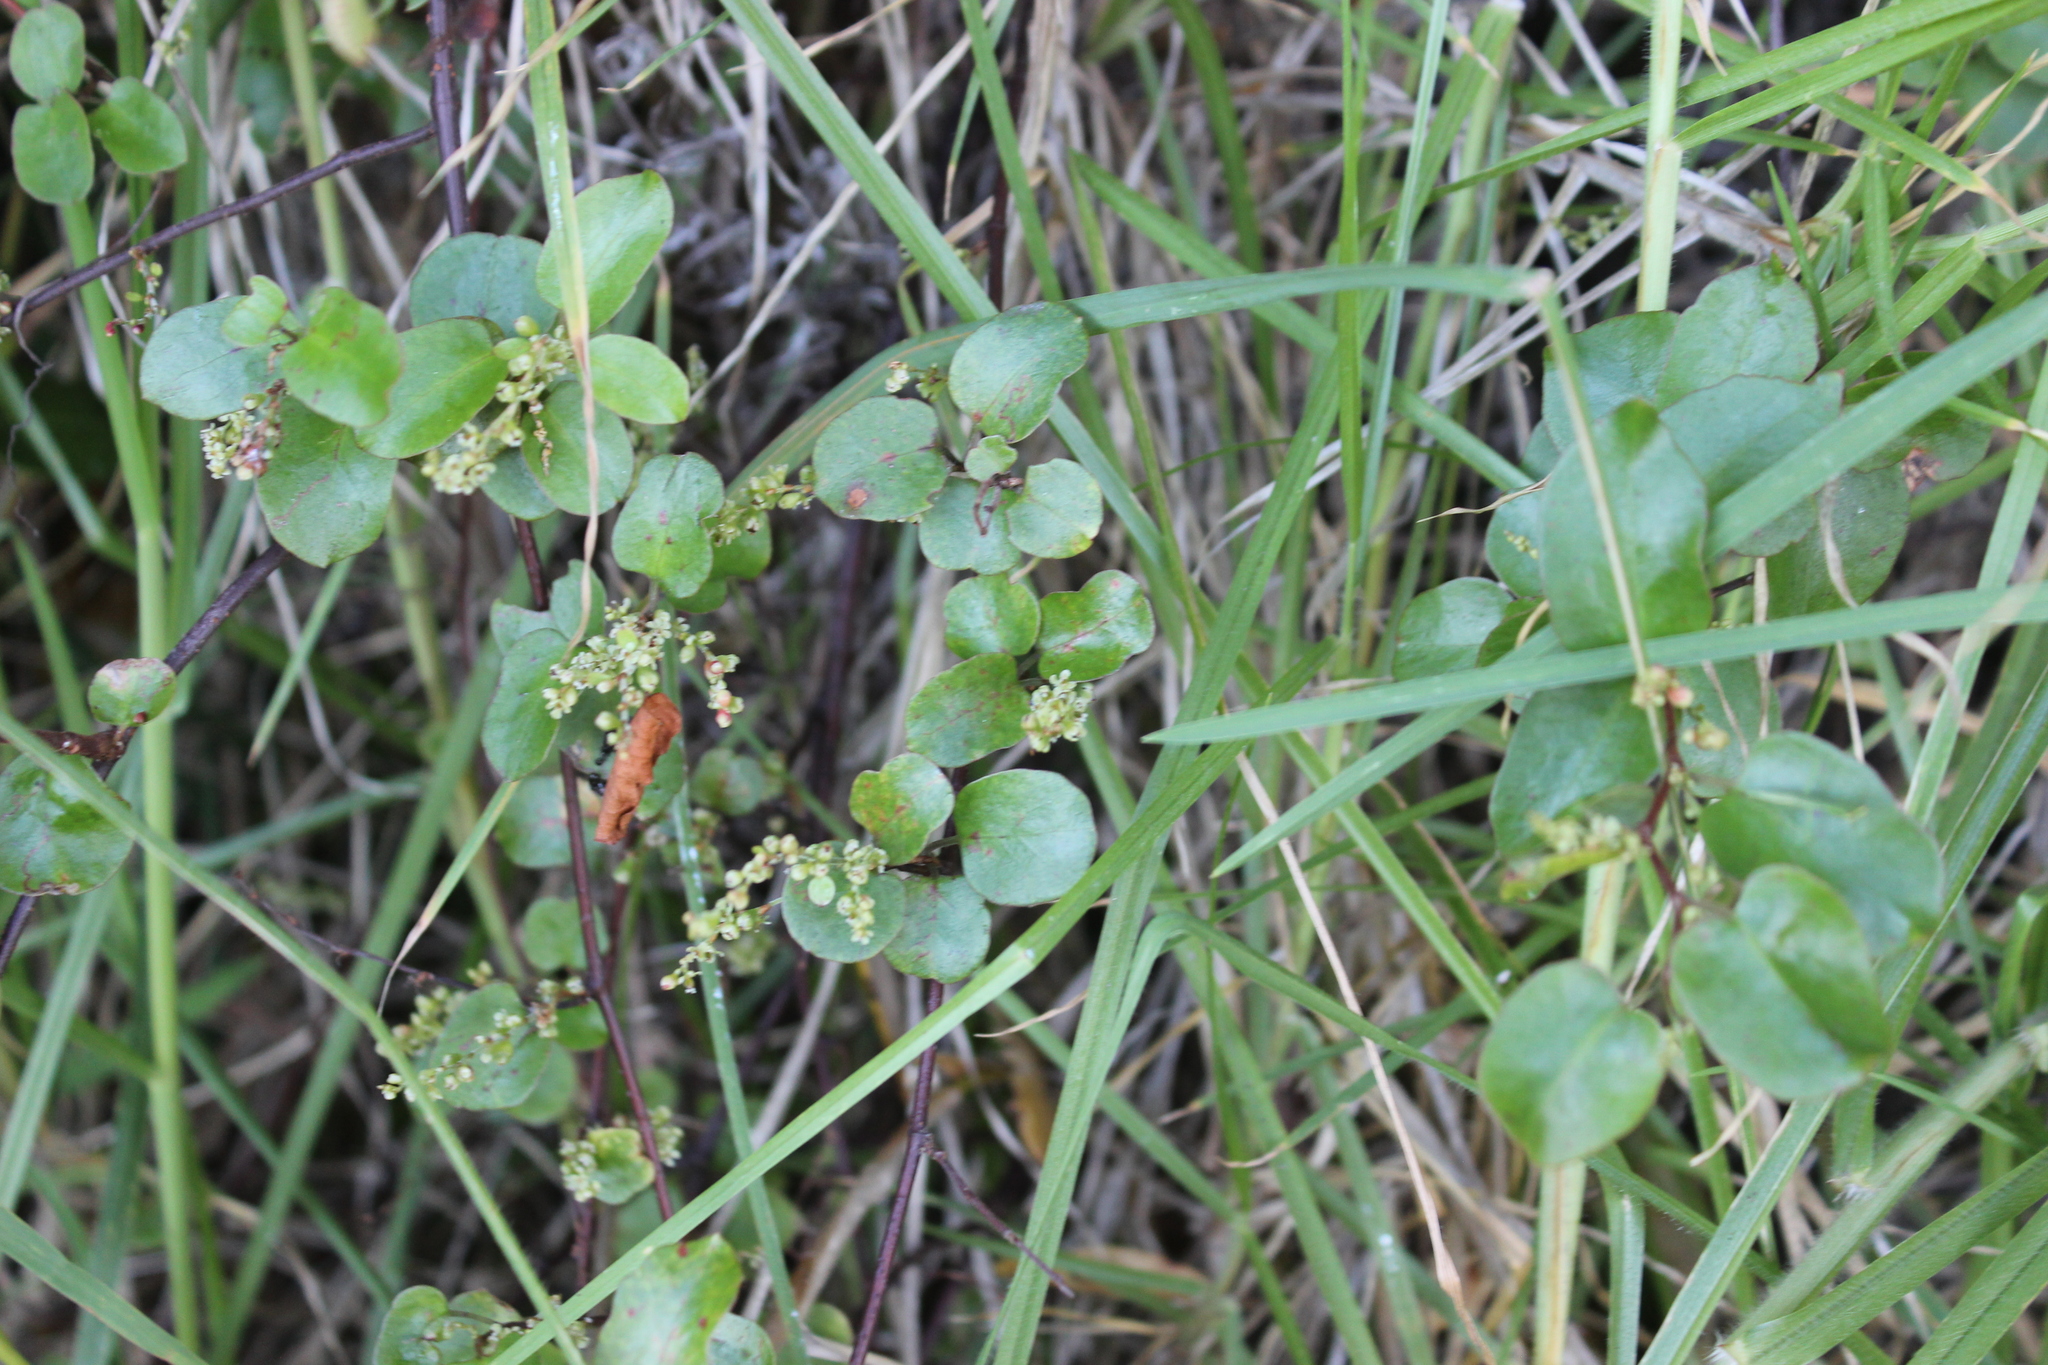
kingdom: Plantae
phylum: Tracheophyta
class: Magnoliopsida
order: Caryophyllales
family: Polygonaceae
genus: Muehlenbeckia
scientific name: Muehlenbeckia australis
